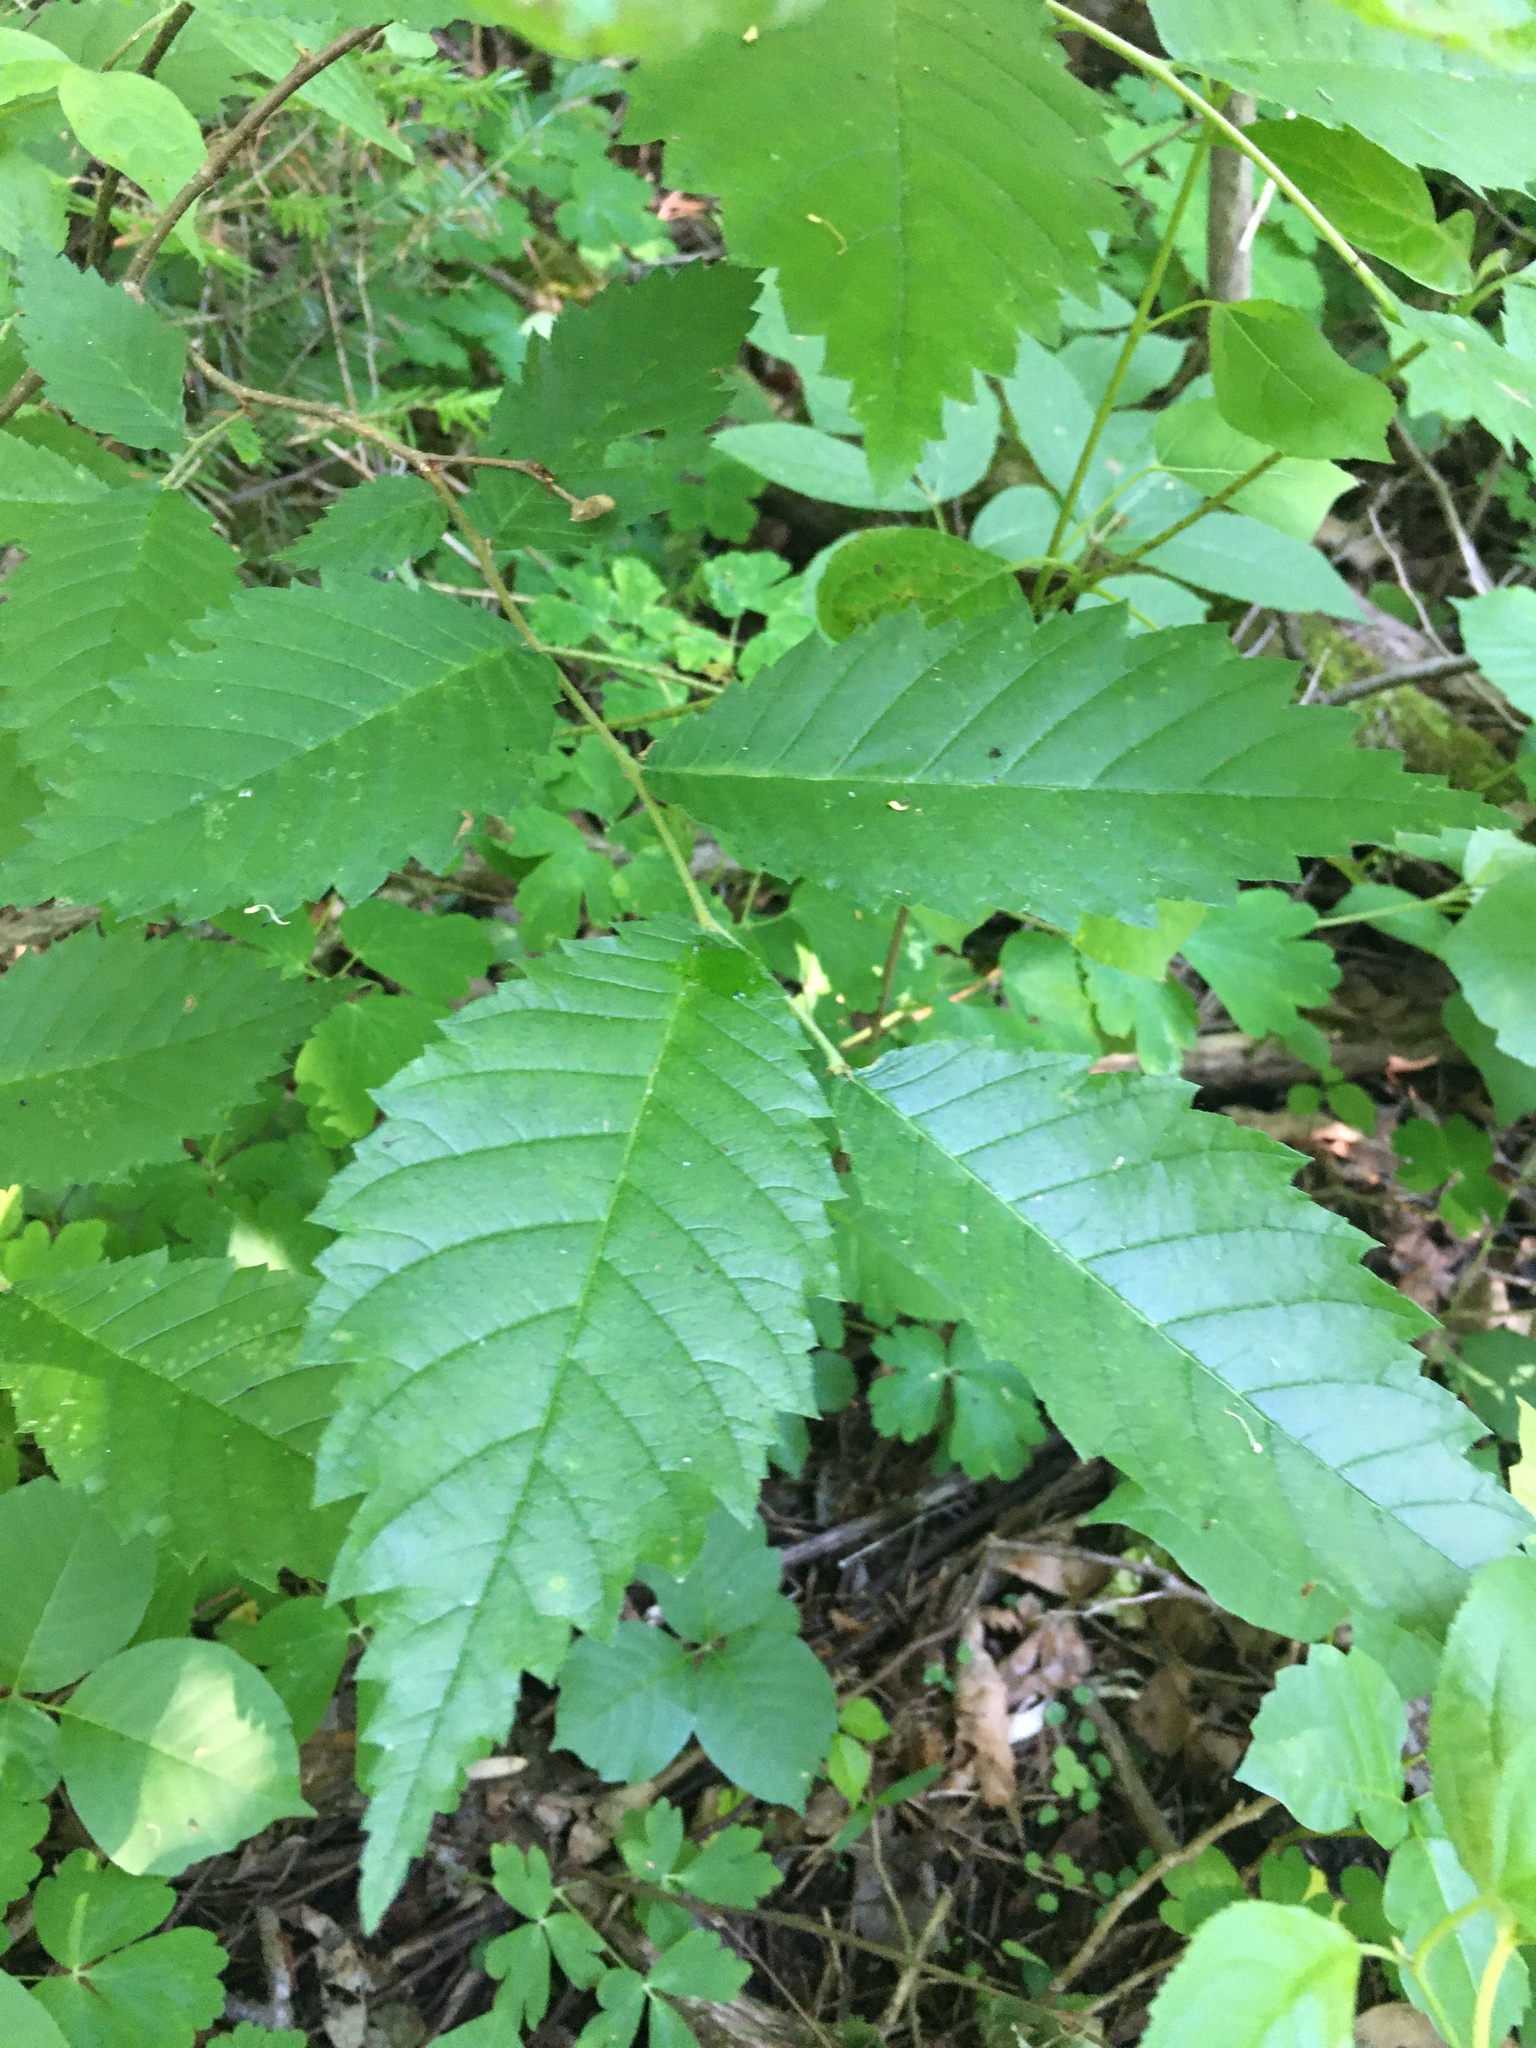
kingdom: Plantae
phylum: Tracheophyta
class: Magnoliopsida
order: Rosales
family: Ulmaceae
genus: Ulmus
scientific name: Ulmus americana
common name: American elm
